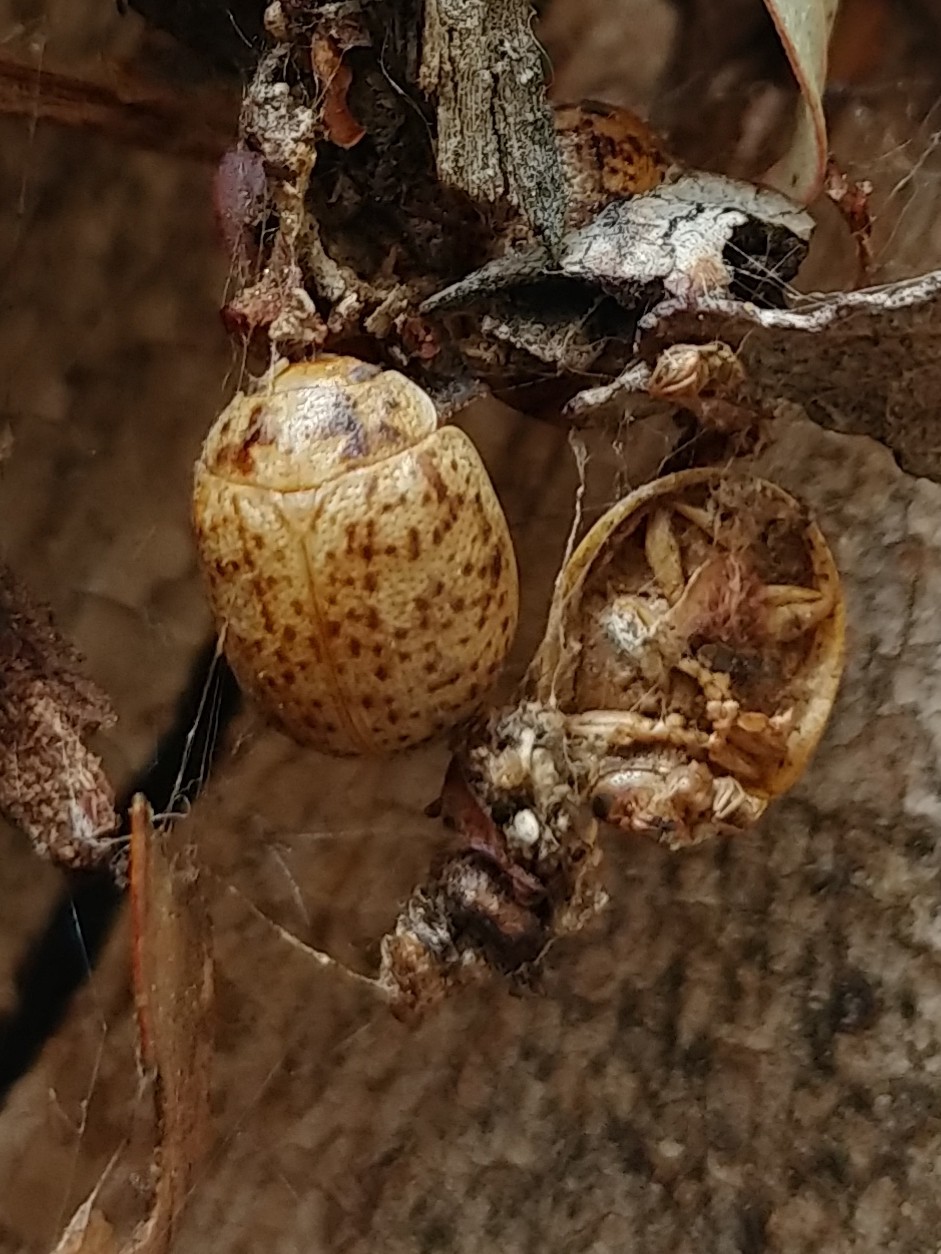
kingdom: Animalia
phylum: Arthropoda
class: Insecta
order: Coleoptera
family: Chrysomelidae
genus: Paropsisterna
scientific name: Paropsisterna m-fuscum
